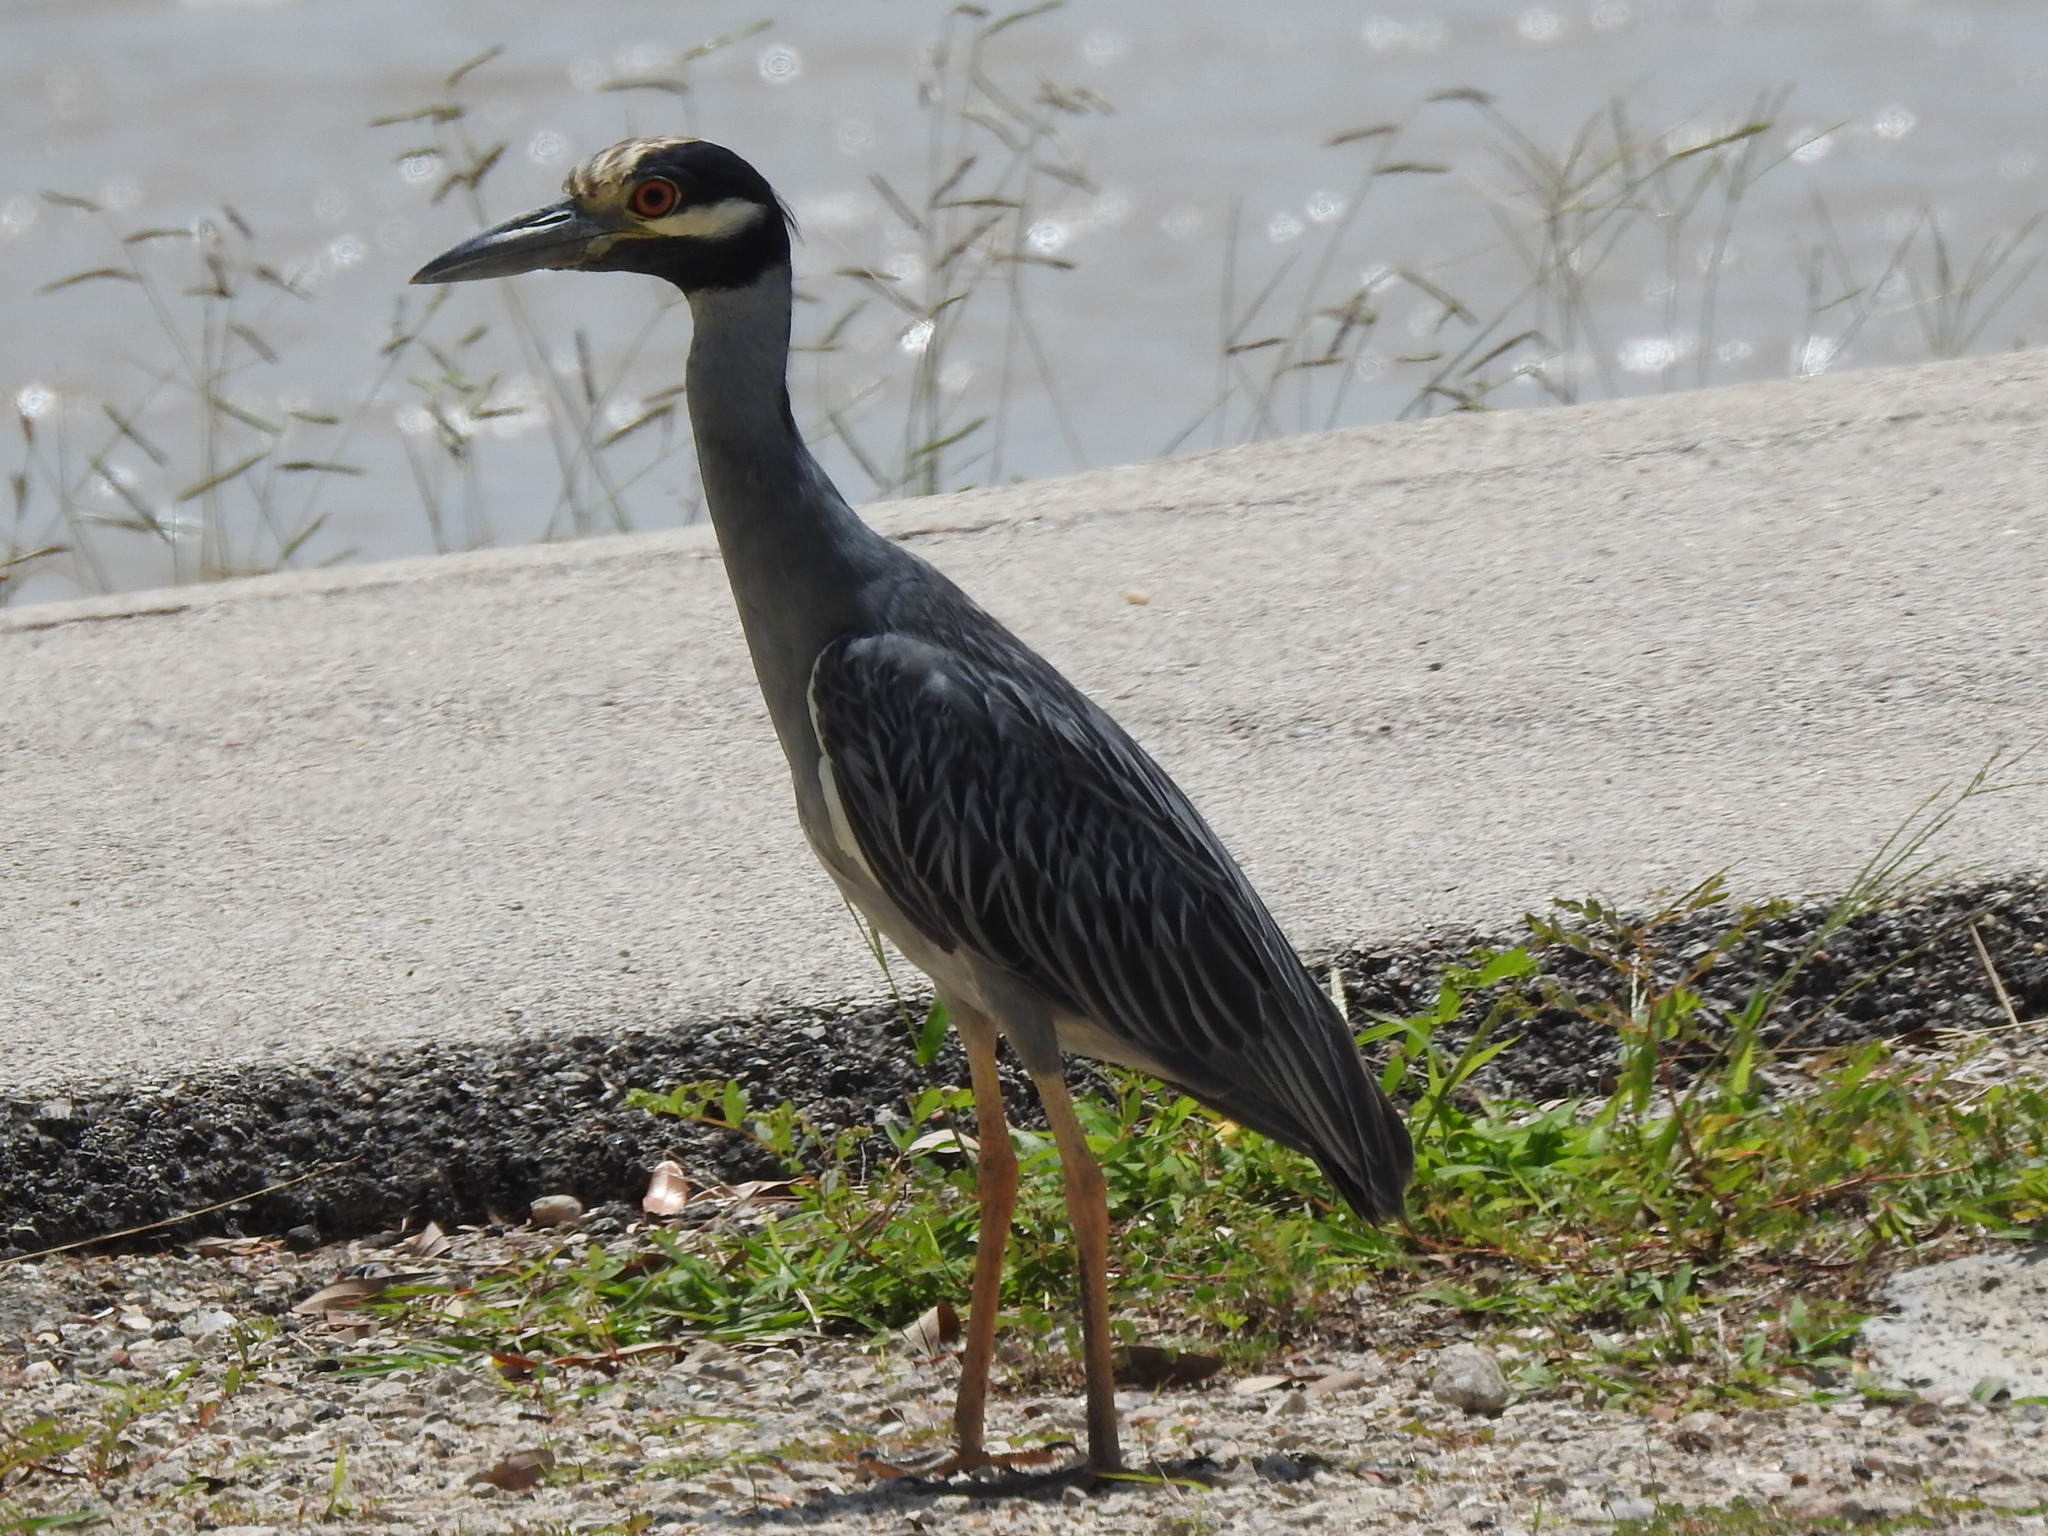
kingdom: Animalia
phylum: Chordata
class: Aves
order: Pelecaniformes
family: Ardeidae
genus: Nyctanassa
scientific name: Nyctanassa violacea
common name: Yellow-crowned night heron
